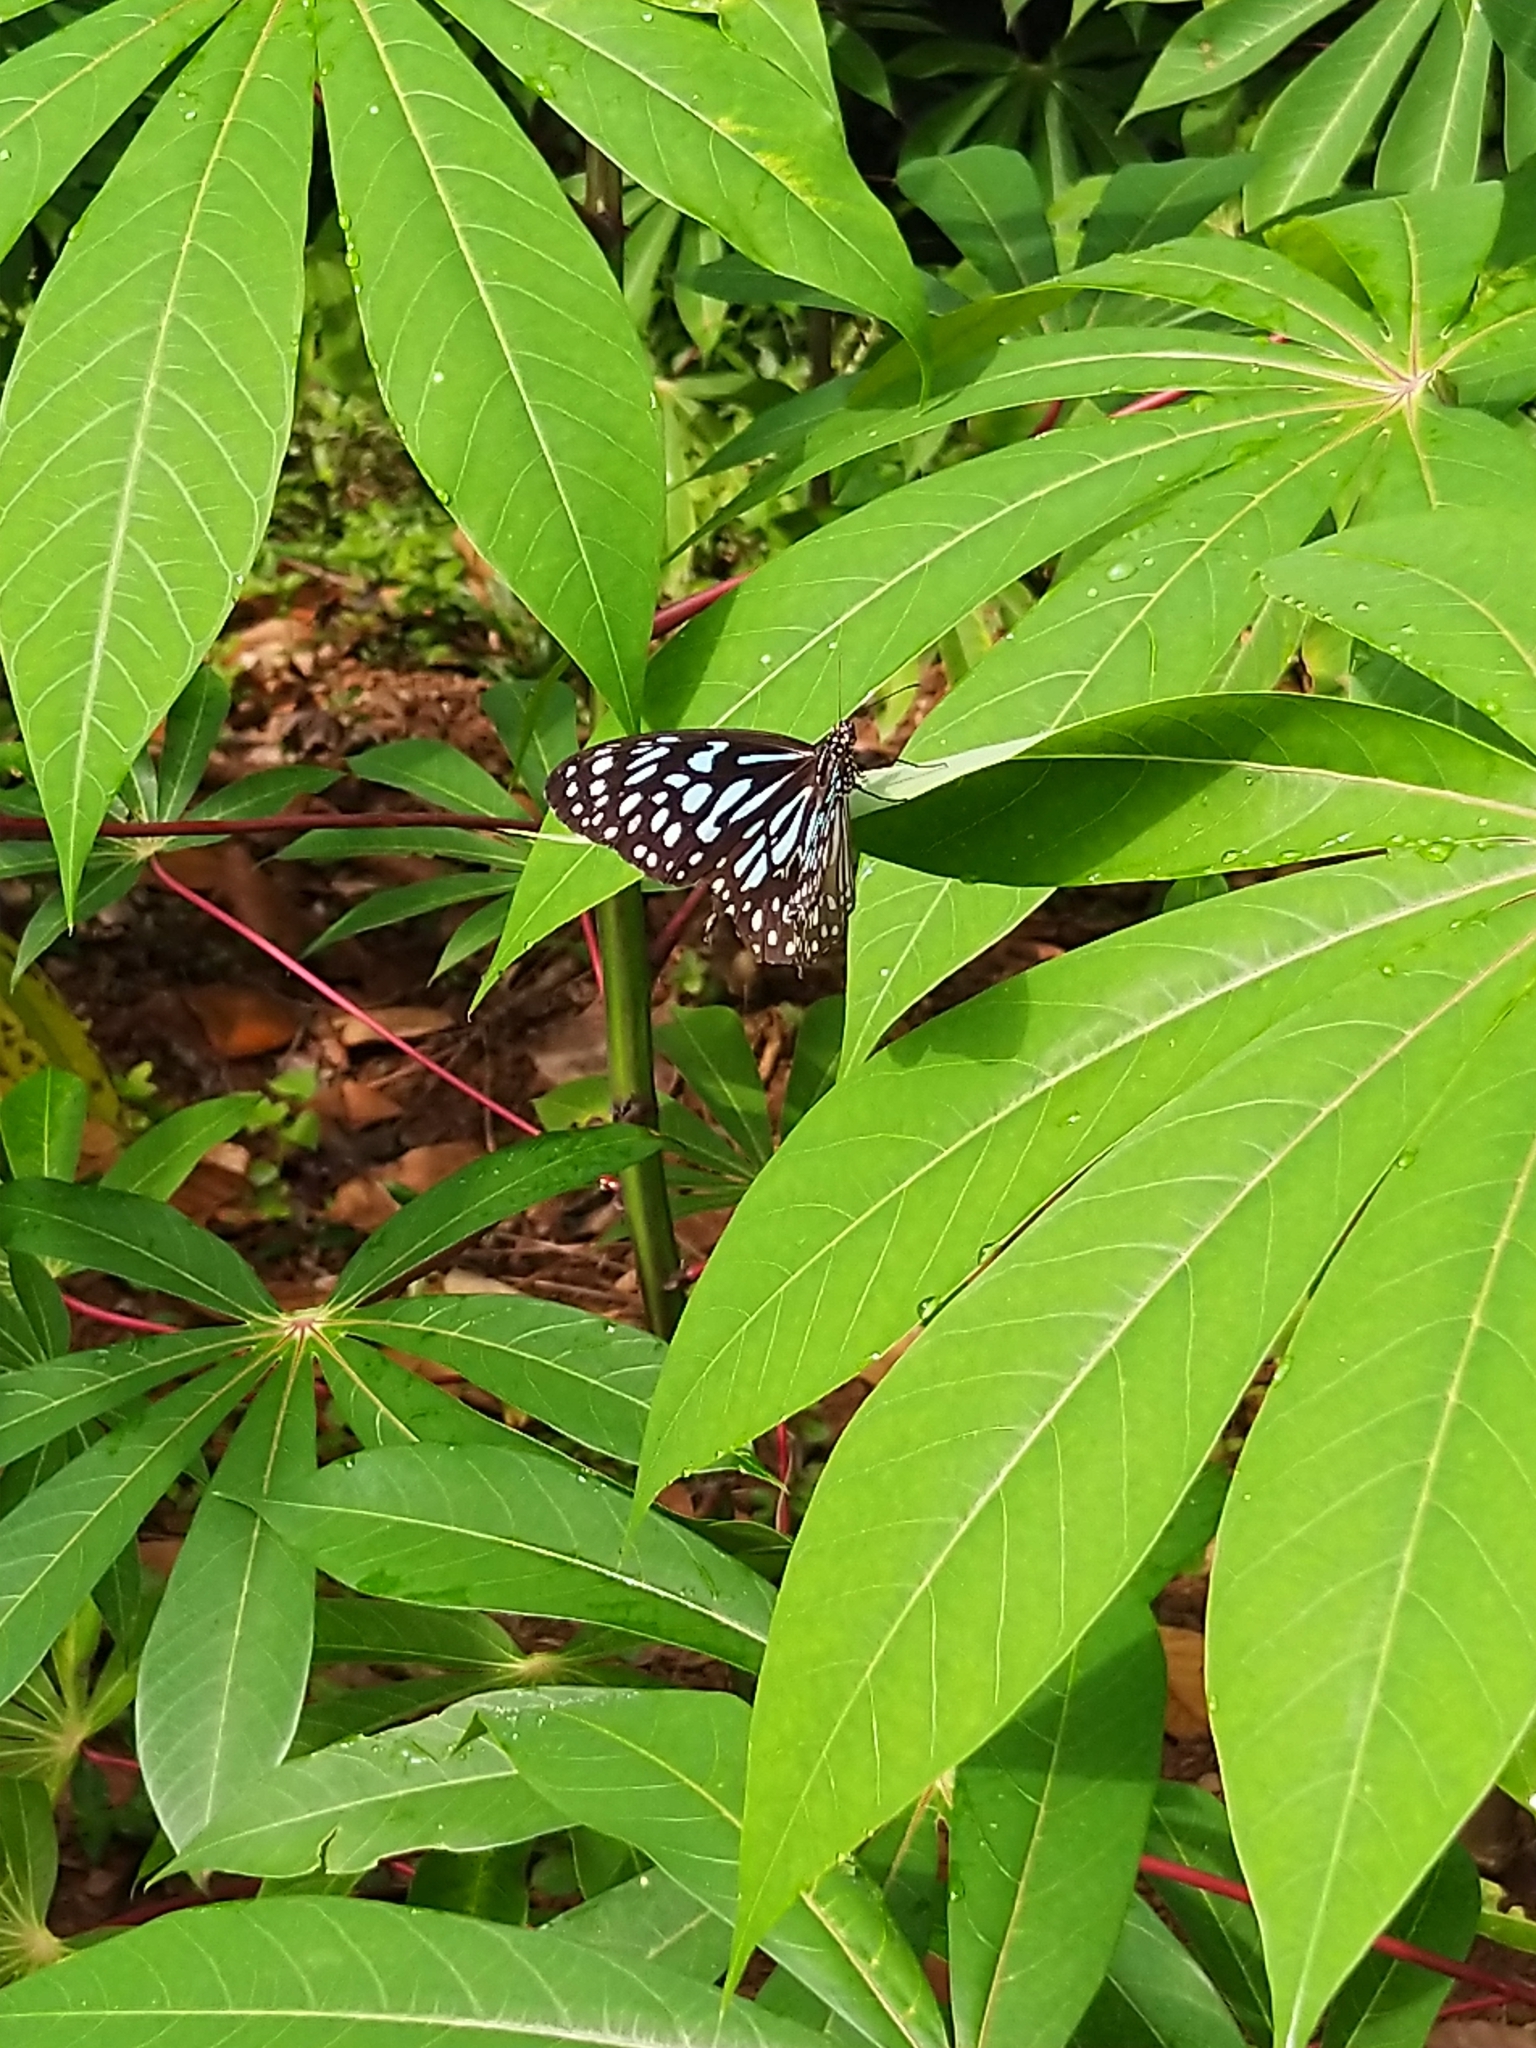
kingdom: Animalia
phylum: Arthropoda
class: Insecta
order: Lepidoptera
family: Nymphalidae
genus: Tirumala
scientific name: Tirumala septentrionis
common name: Dark blue tiger butterfly
